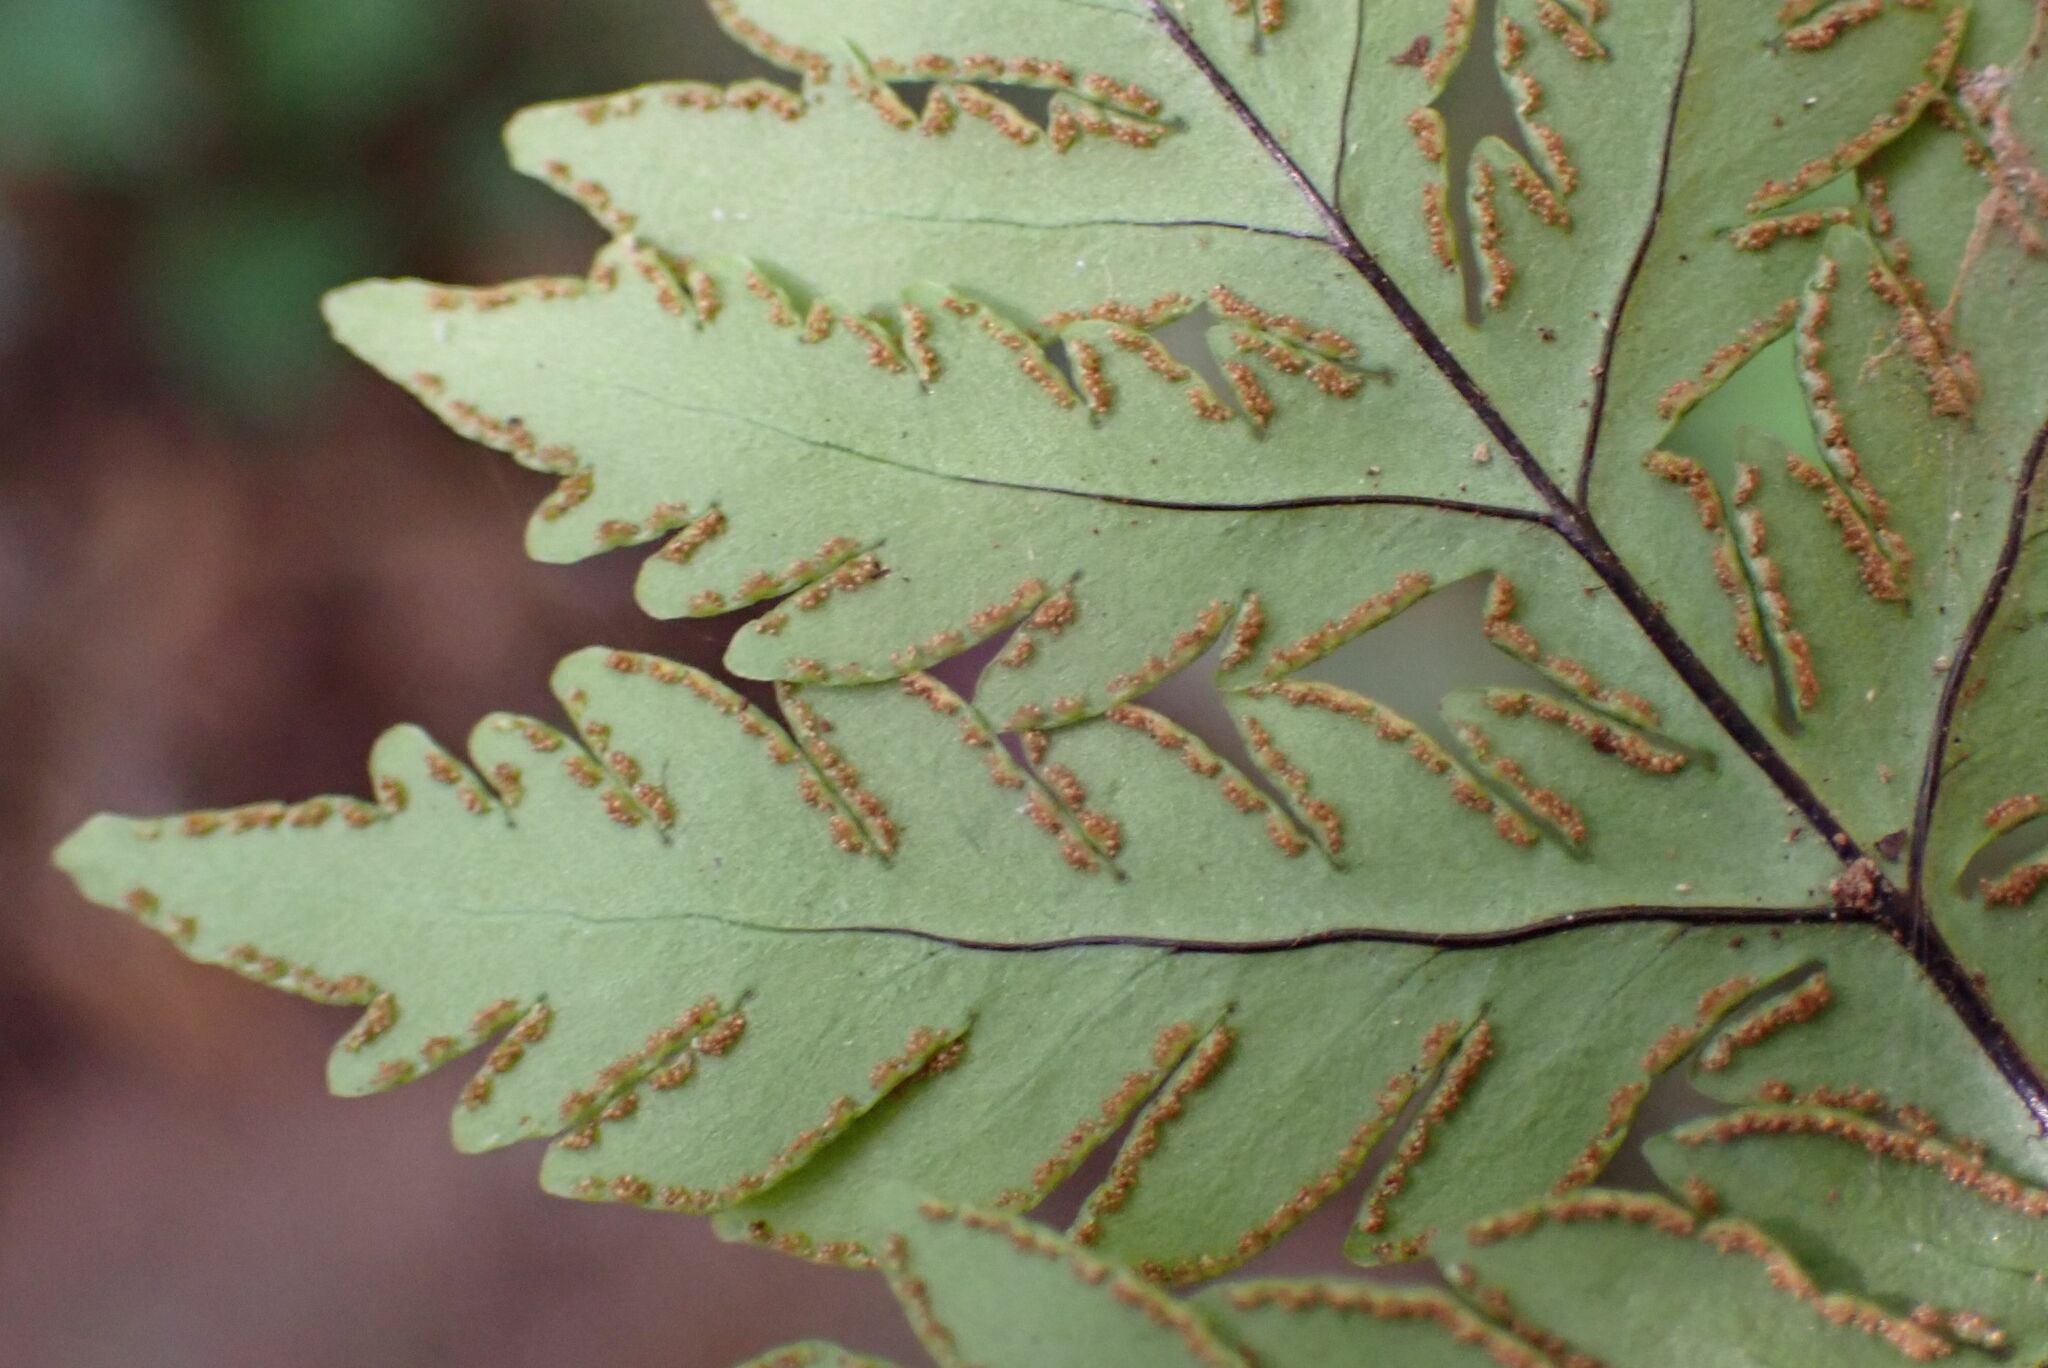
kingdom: Plantae
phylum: Tracheophyta
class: Polypodiopsida
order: Polypodiales
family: Pteridaceae
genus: Doryopteris
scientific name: Doryopteris concolor
